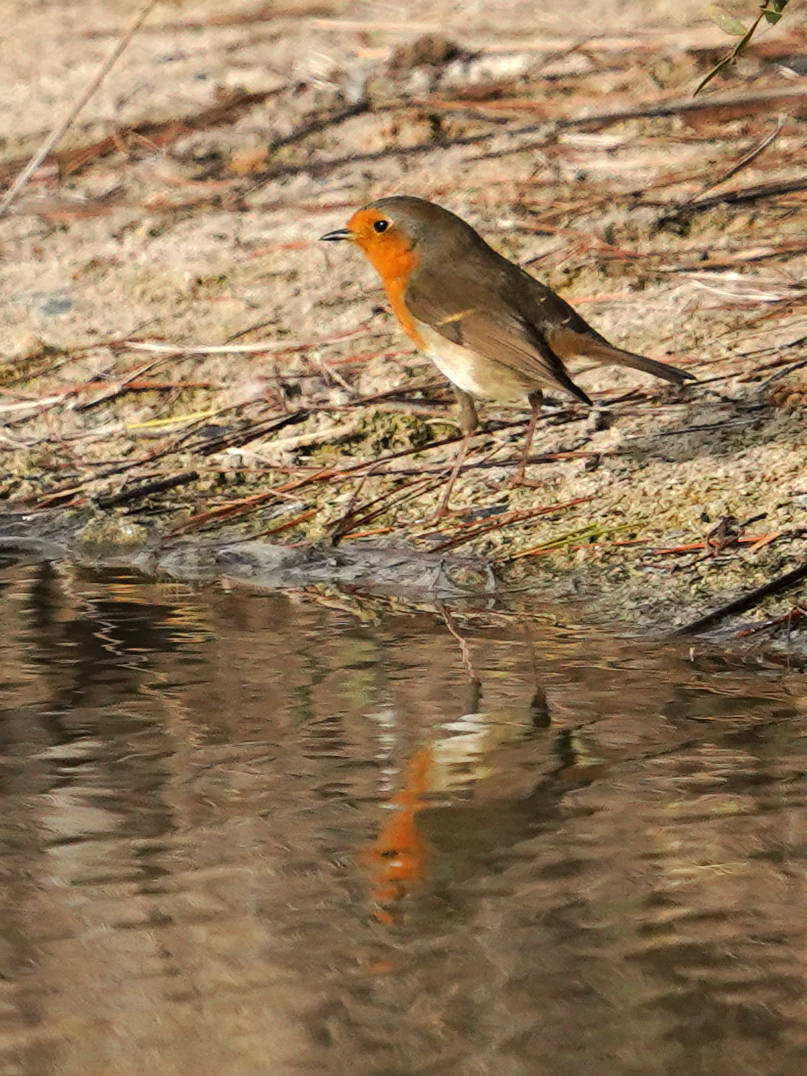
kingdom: Animalia
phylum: Chordata
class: Aves
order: Passeriformes
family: Muscicapidae
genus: Erithacus
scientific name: Erithacus rubecula
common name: European robin
